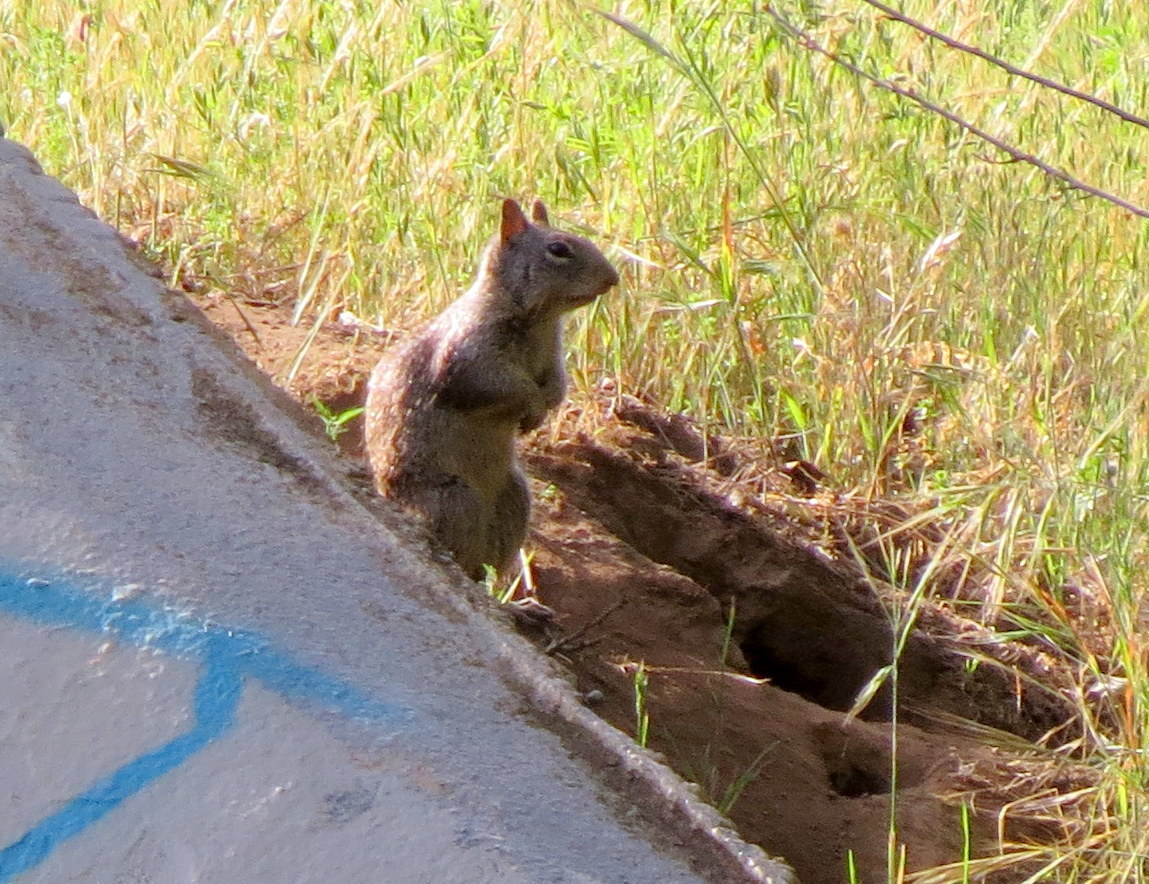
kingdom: Animalia
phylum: Chordata
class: Mammalia
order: Rodentia
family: Sciuridae
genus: Otospermophilus
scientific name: Otospermophilus beecheyi
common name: California ground squirrel
